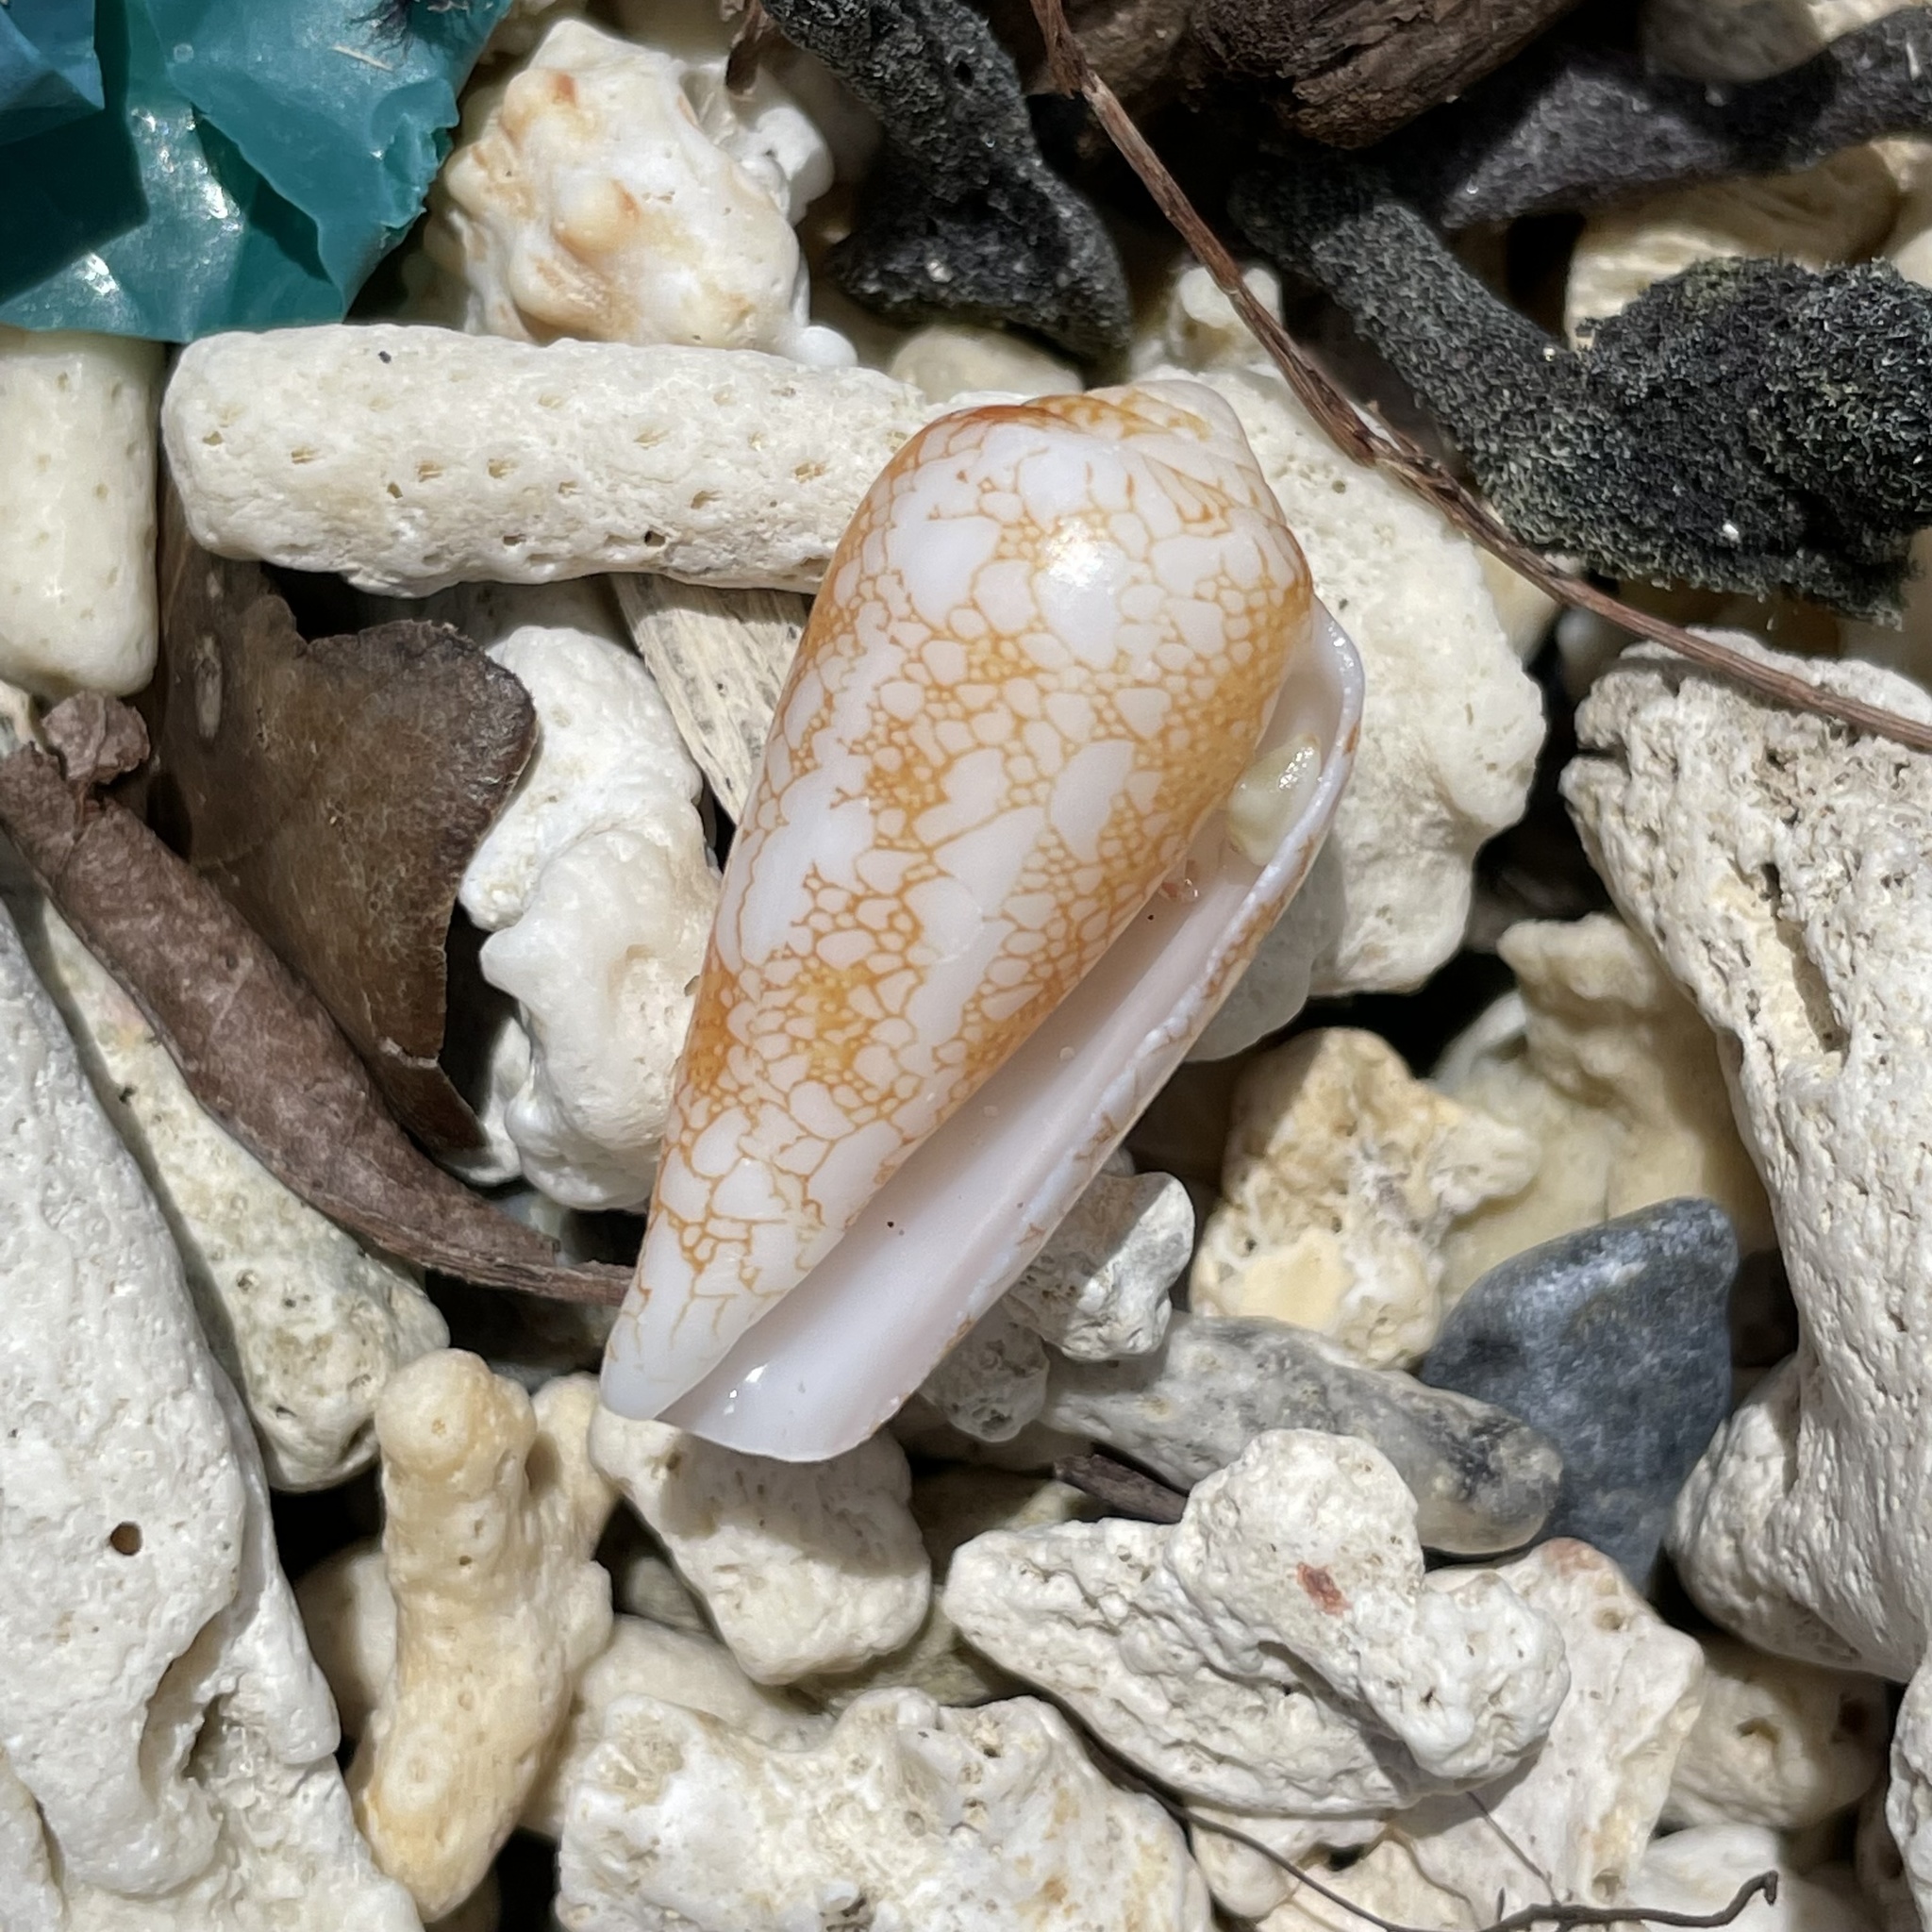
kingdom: Animalia
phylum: Mollusca
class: Gastropoda
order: Neogastropoda
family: Conidae
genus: Conus
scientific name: Conus omaria
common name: Omaria cone
